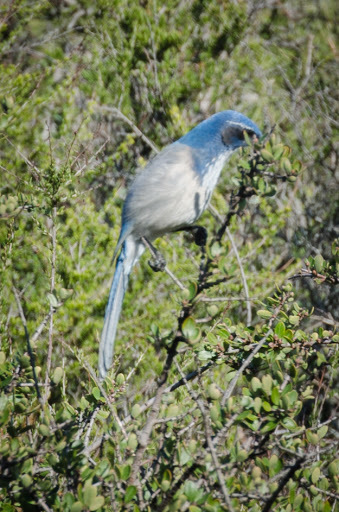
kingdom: Animalia
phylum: Chordata
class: Aves
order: Passeriformes
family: Corvidae
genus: Aphelocoma
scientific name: Aphelocoma californica
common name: California scrub-jay
